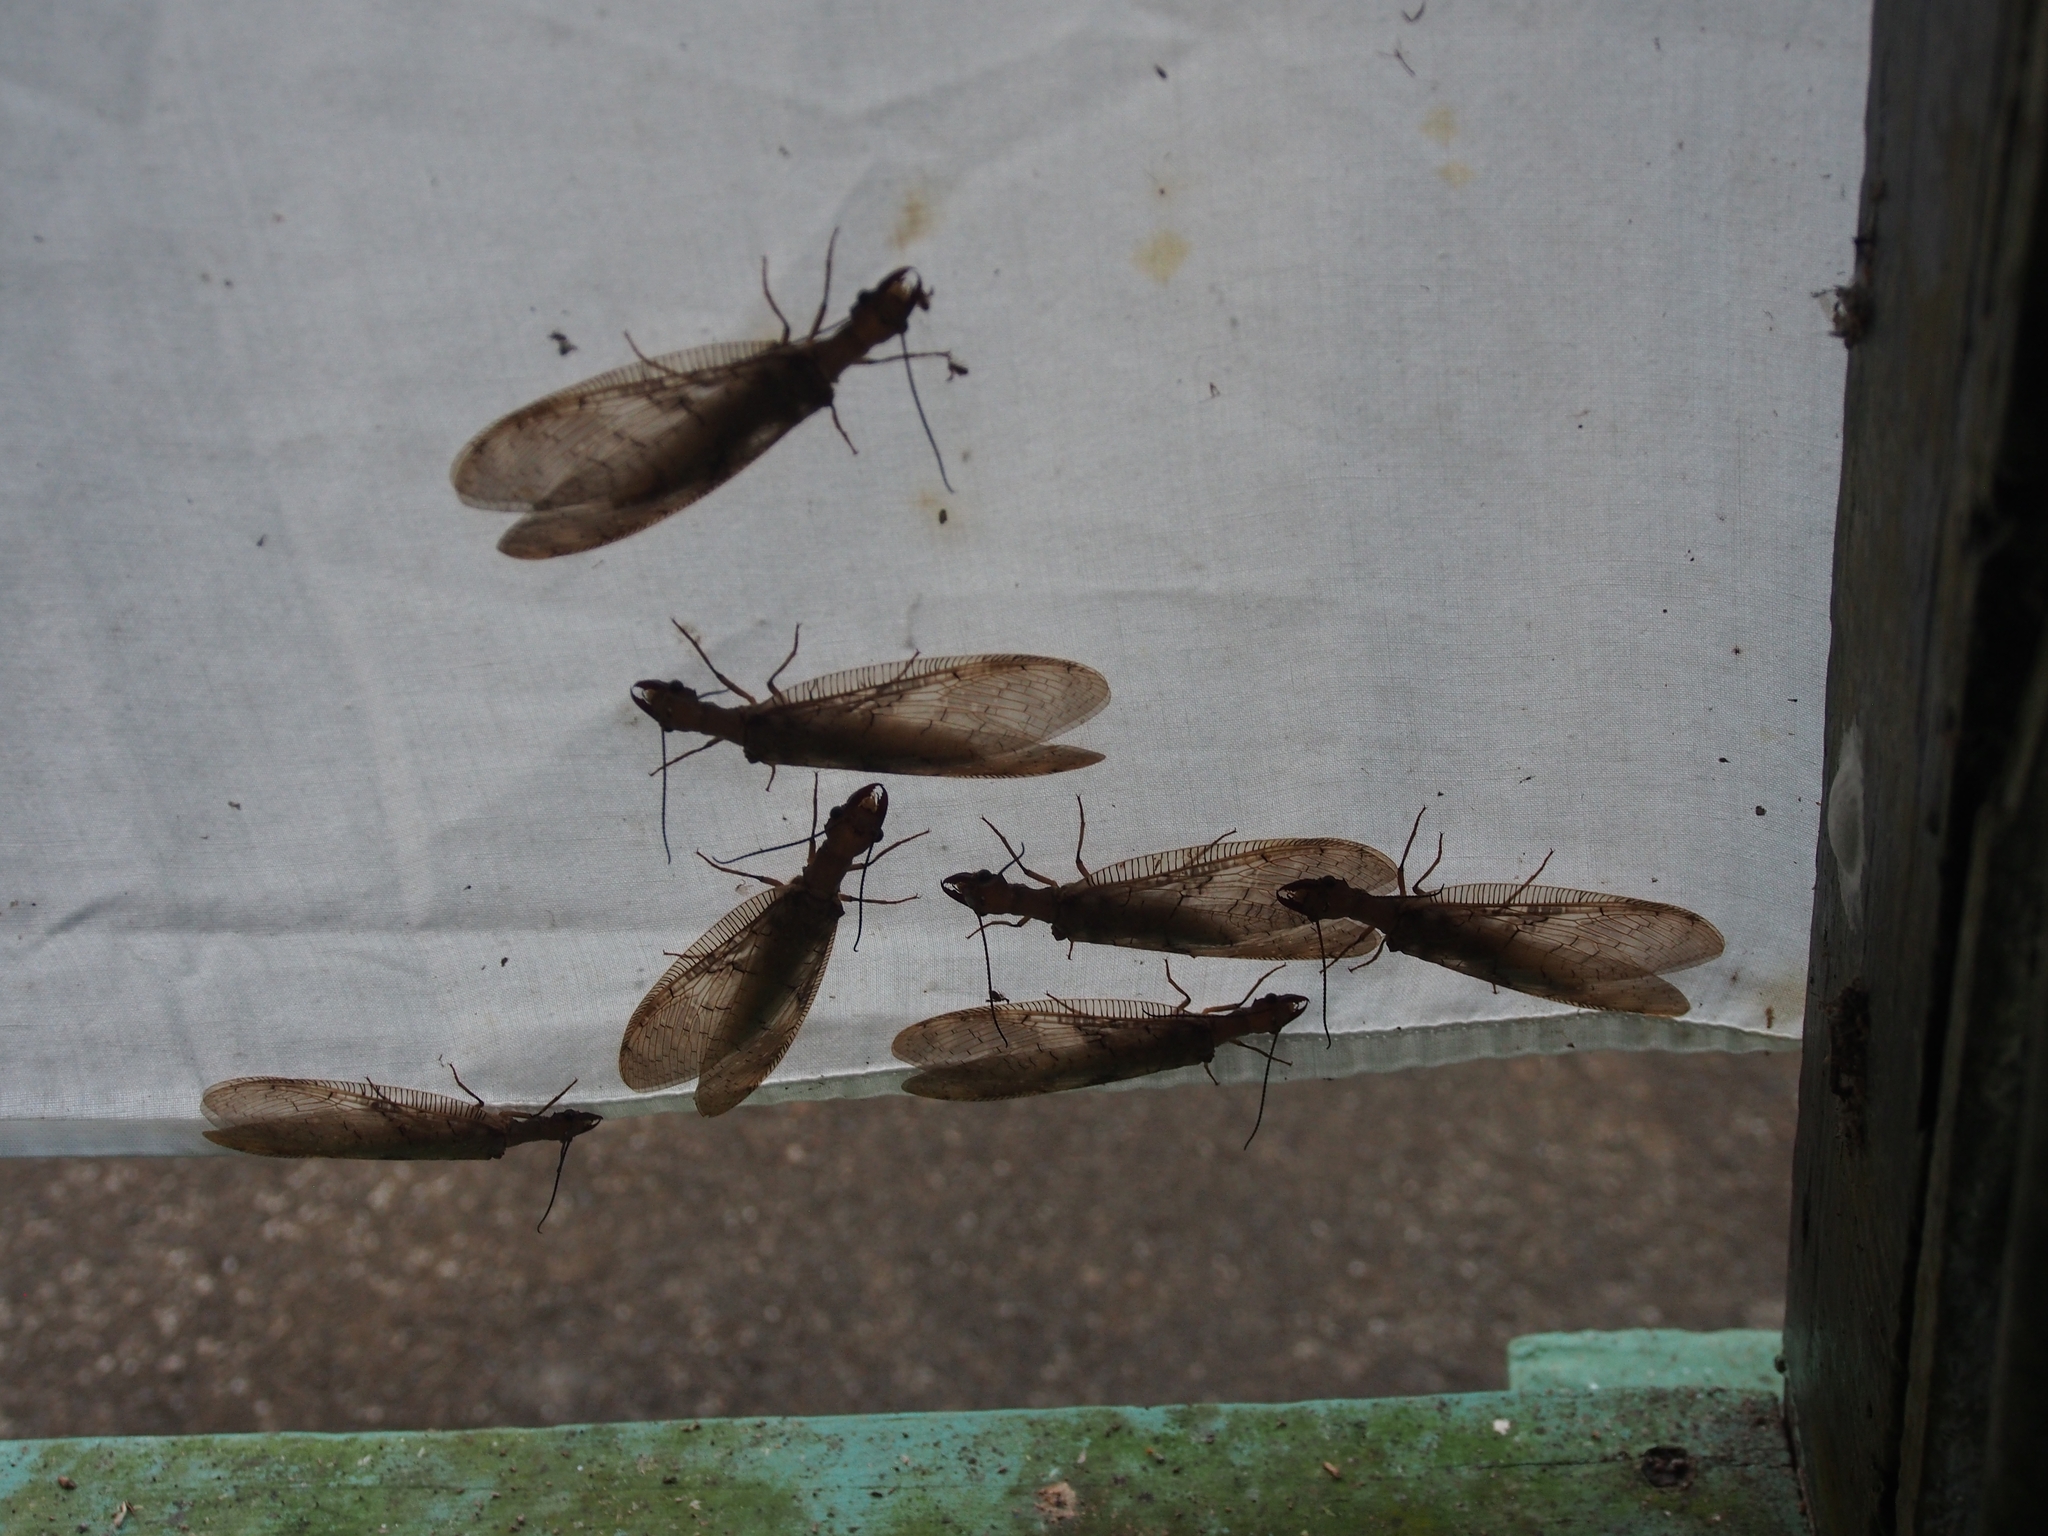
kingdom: Animalia
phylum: Arthropoda
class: Insecta
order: Megaloptera
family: Corydalidae
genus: Corydalus
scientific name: Corydalus flavicornis
